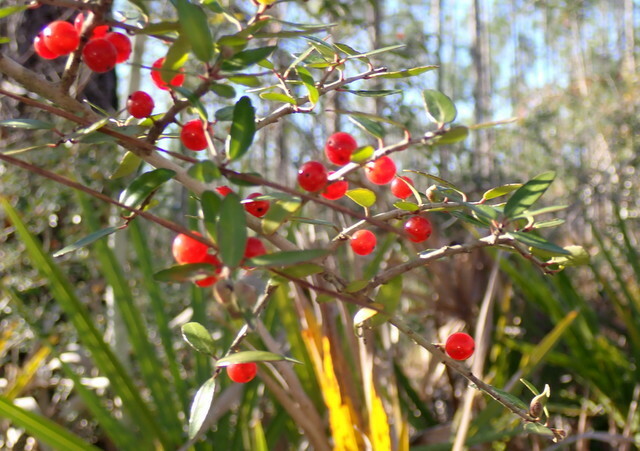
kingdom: Plantae
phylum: Tracheophyta
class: Magnoliopsida
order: Aquifoliales
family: Aquifoliaceae
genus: Ilex
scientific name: Ilex vomitoria
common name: Yaupon holly
